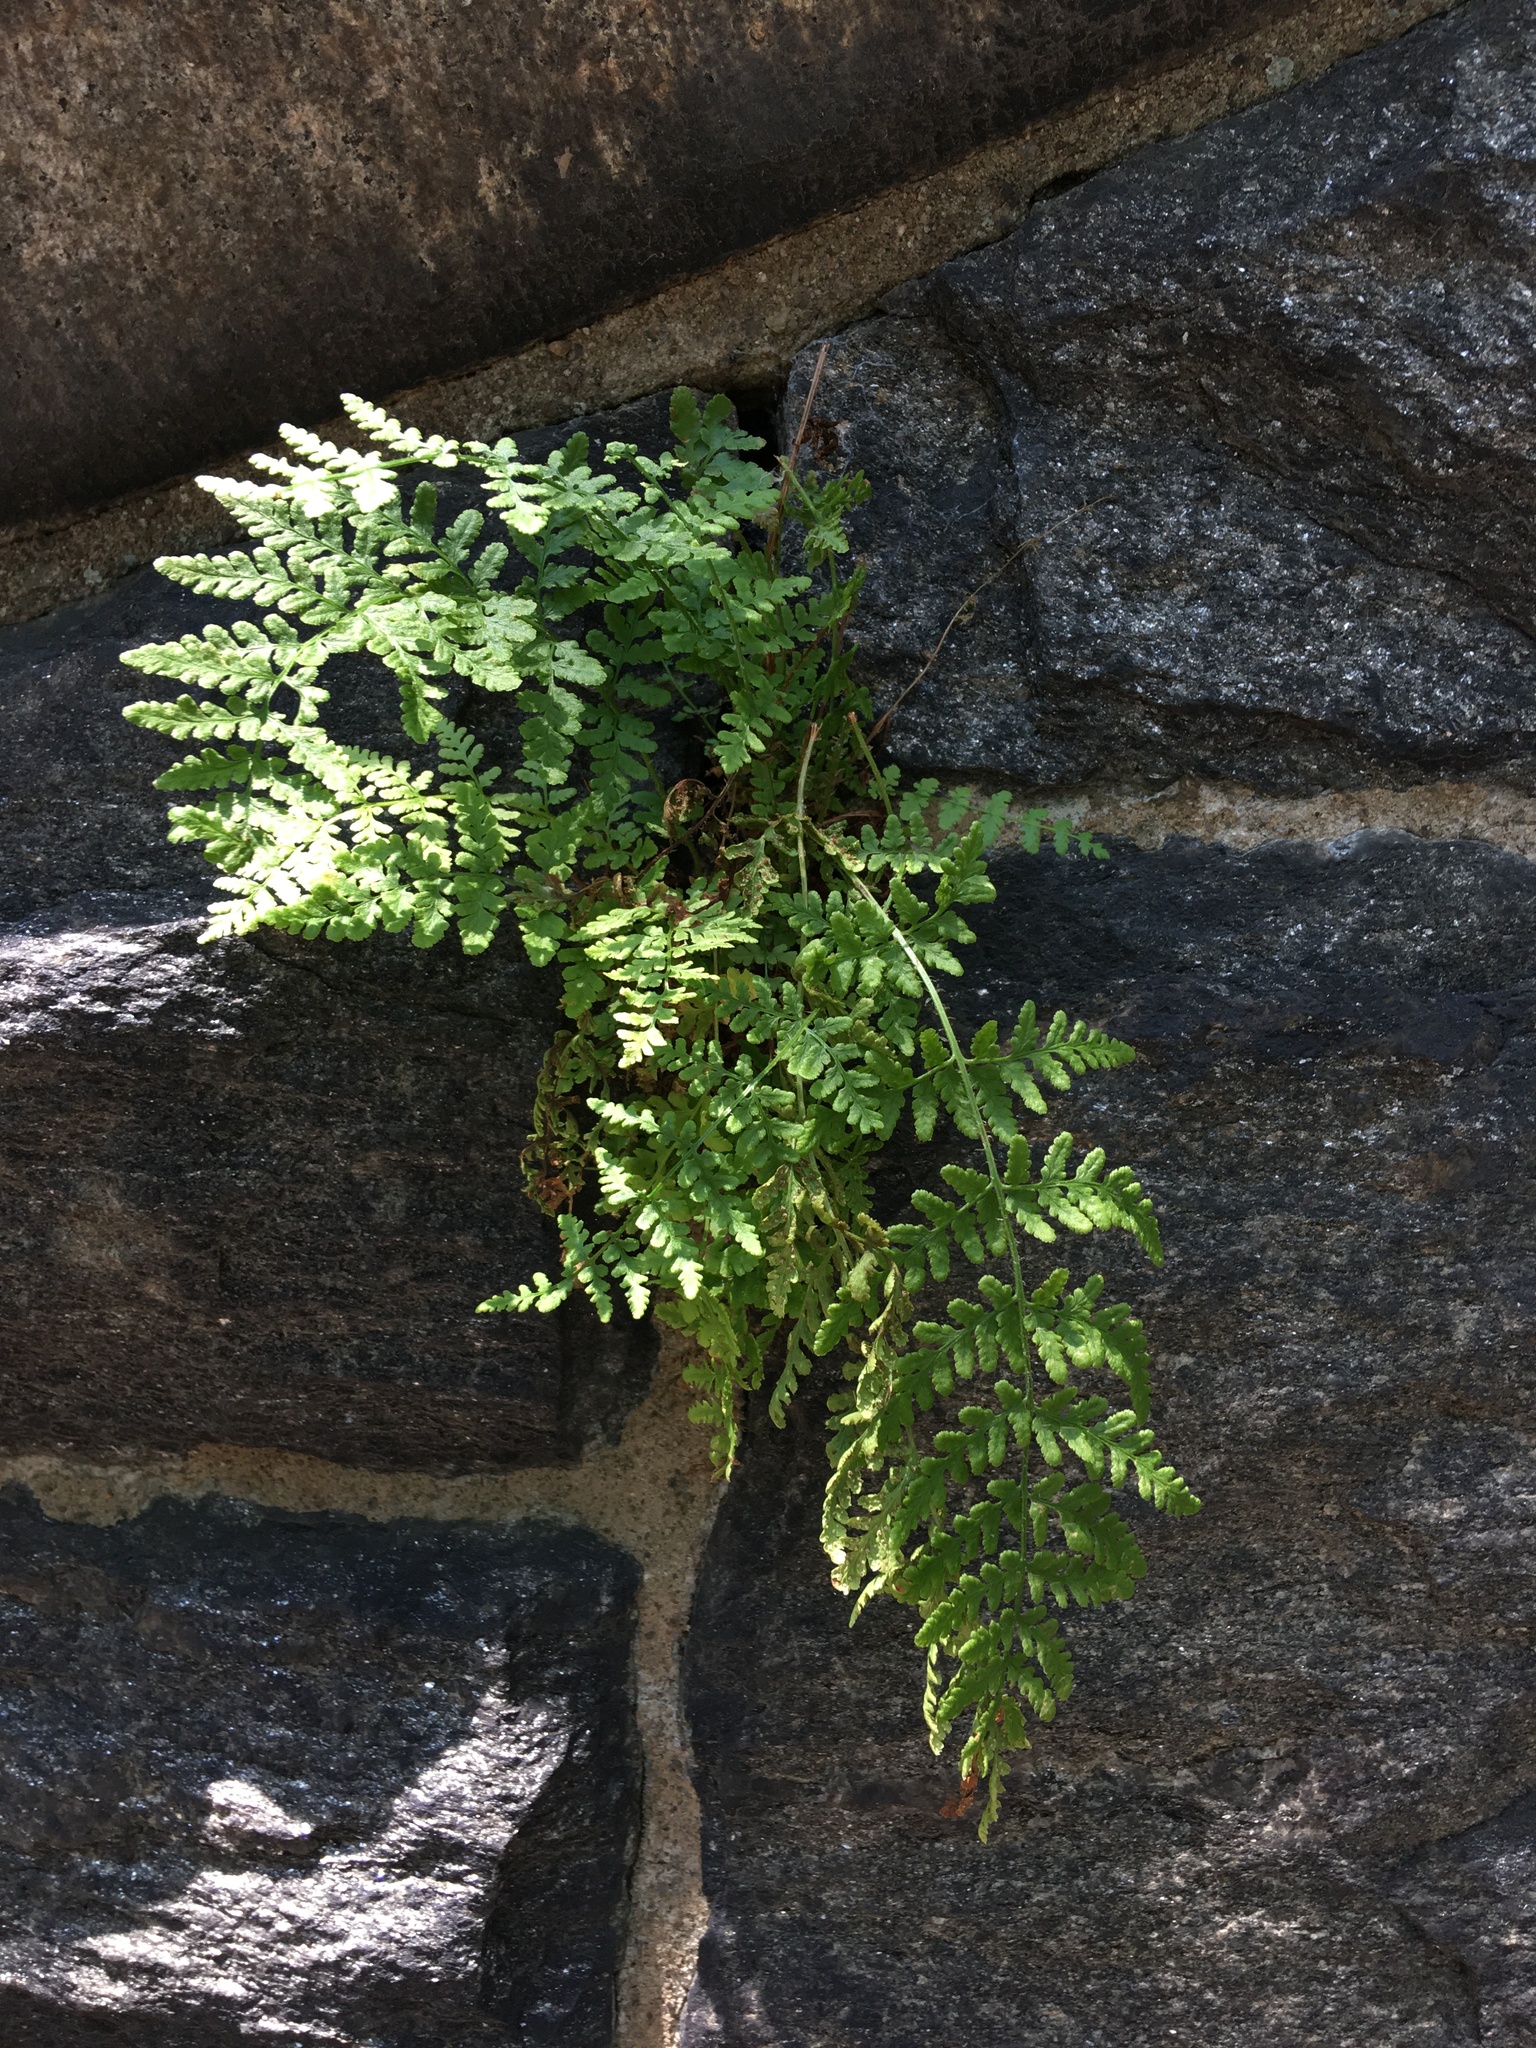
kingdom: Plantae
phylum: Tracheophyta
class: Polypodiopsida
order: Polypodiales
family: Woodsiaceae
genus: Physematium
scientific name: Physematium obtusum
